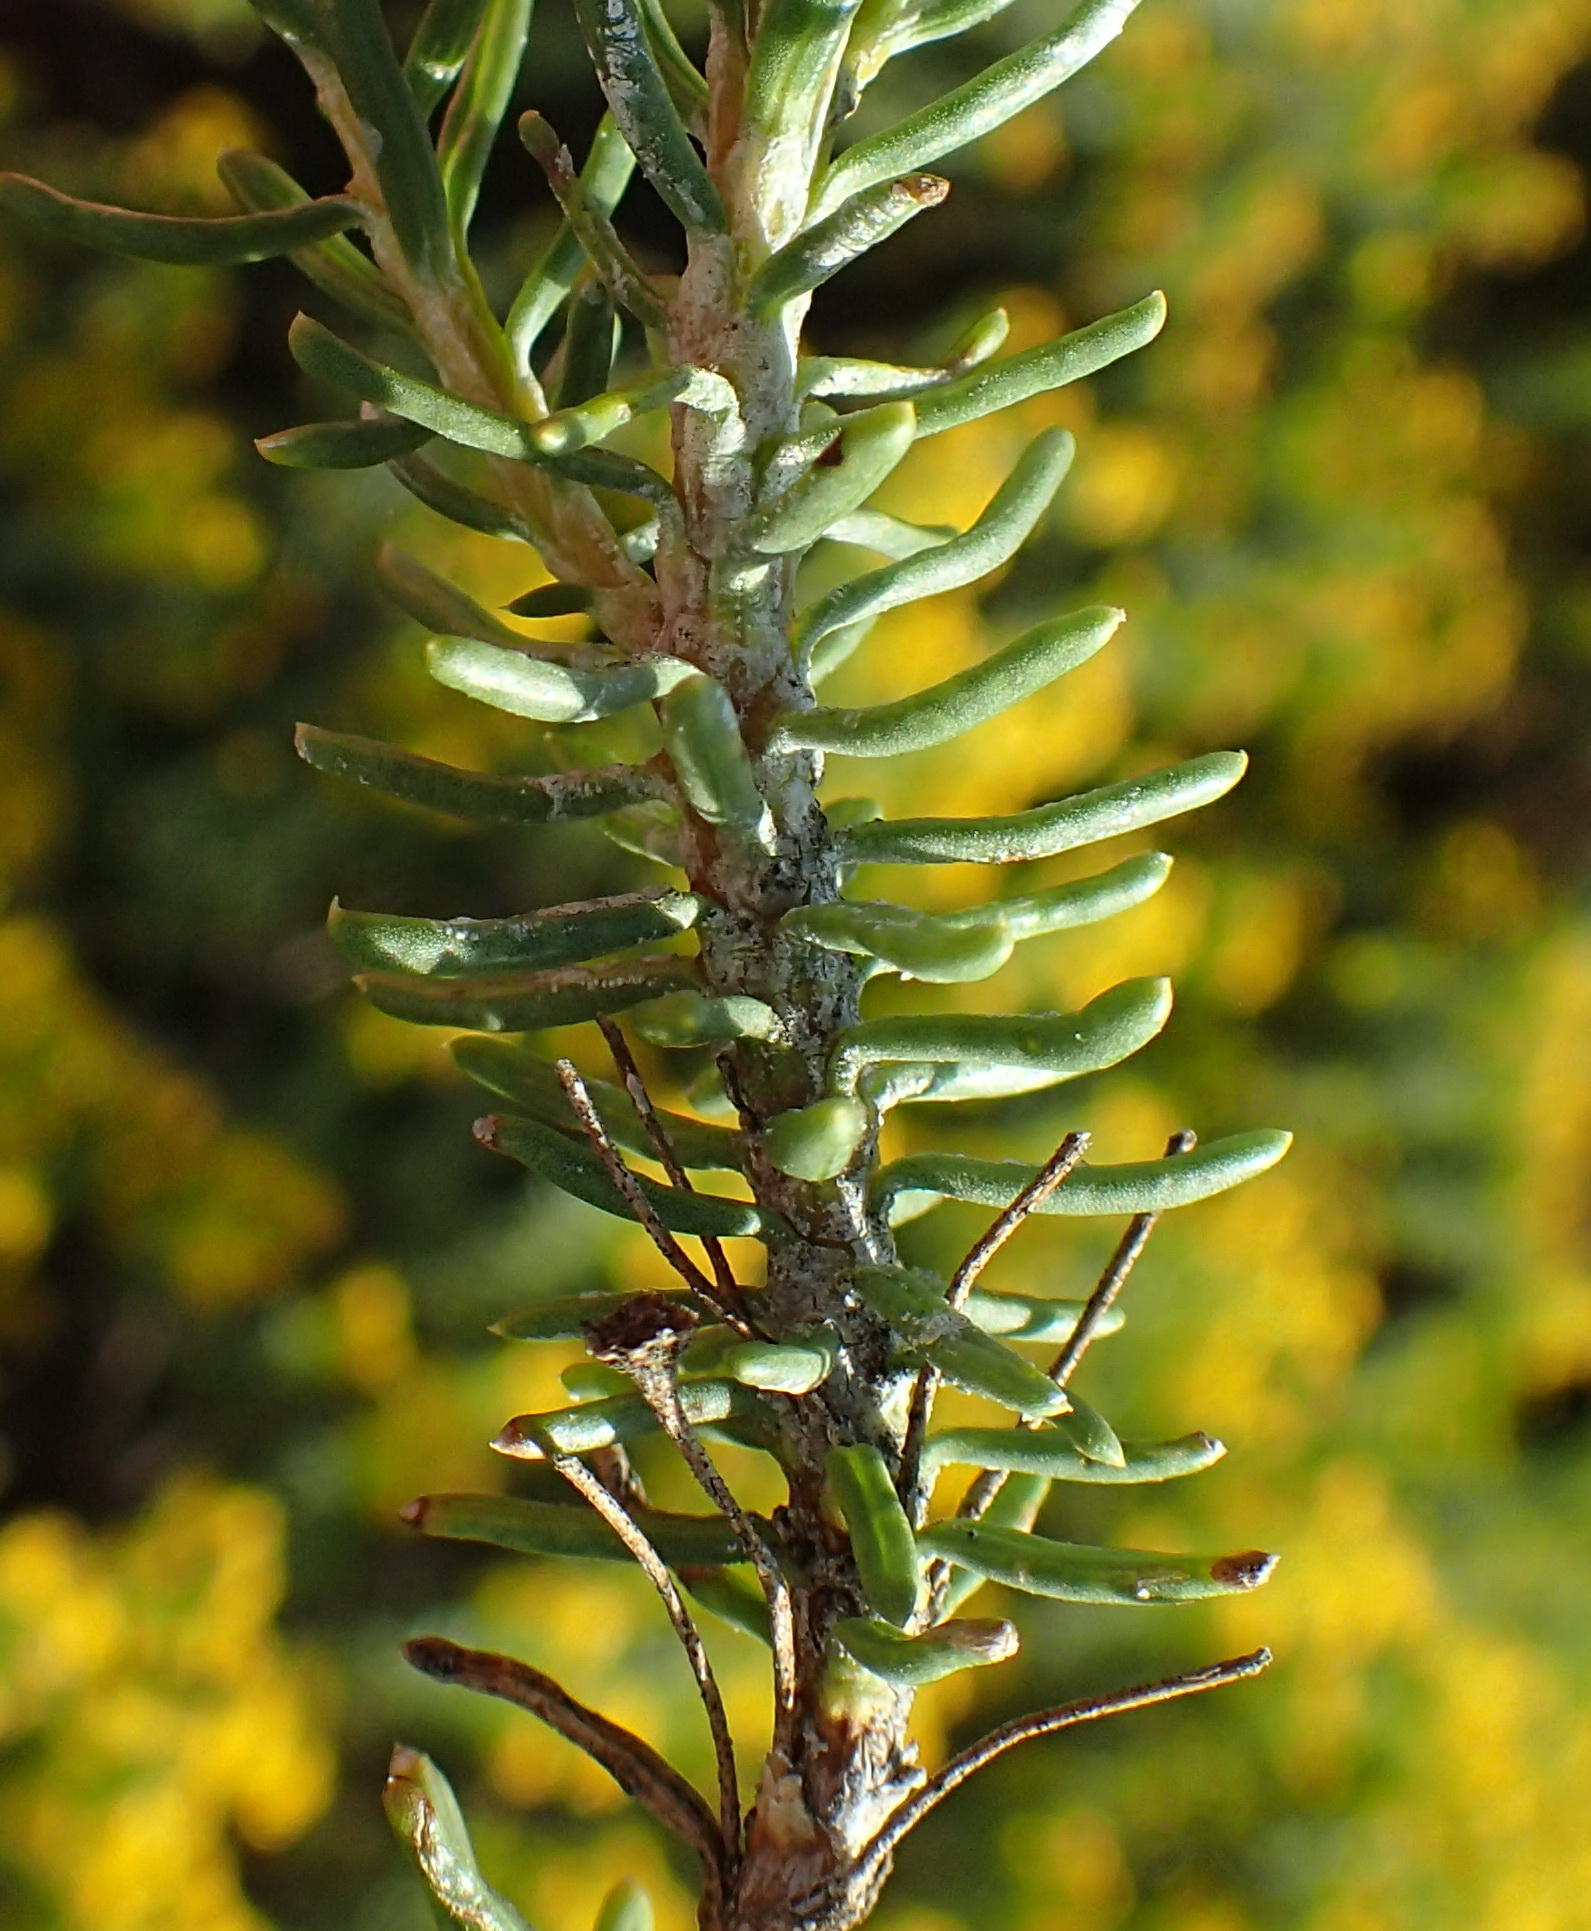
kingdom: Plantae
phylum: Tracheophyta
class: Magnoliopsida
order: Asterales
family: Asteraceae
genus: Euryops
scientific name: Euryops floribundus
